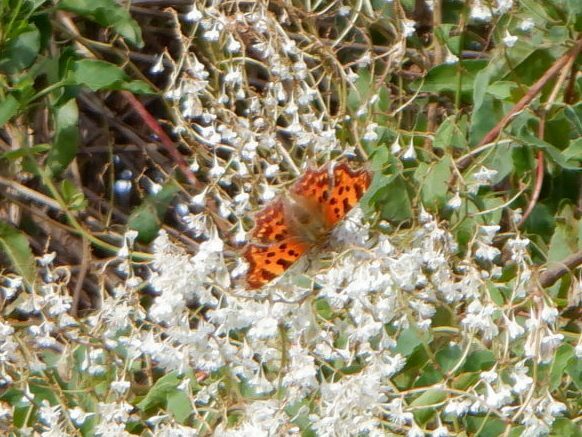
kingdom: Animalia
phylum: Arthropoda
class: Insecta
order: Lepidoptera
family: Nymphalidae
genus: Polygonia
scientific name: Polygonia c-album
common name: Comma
